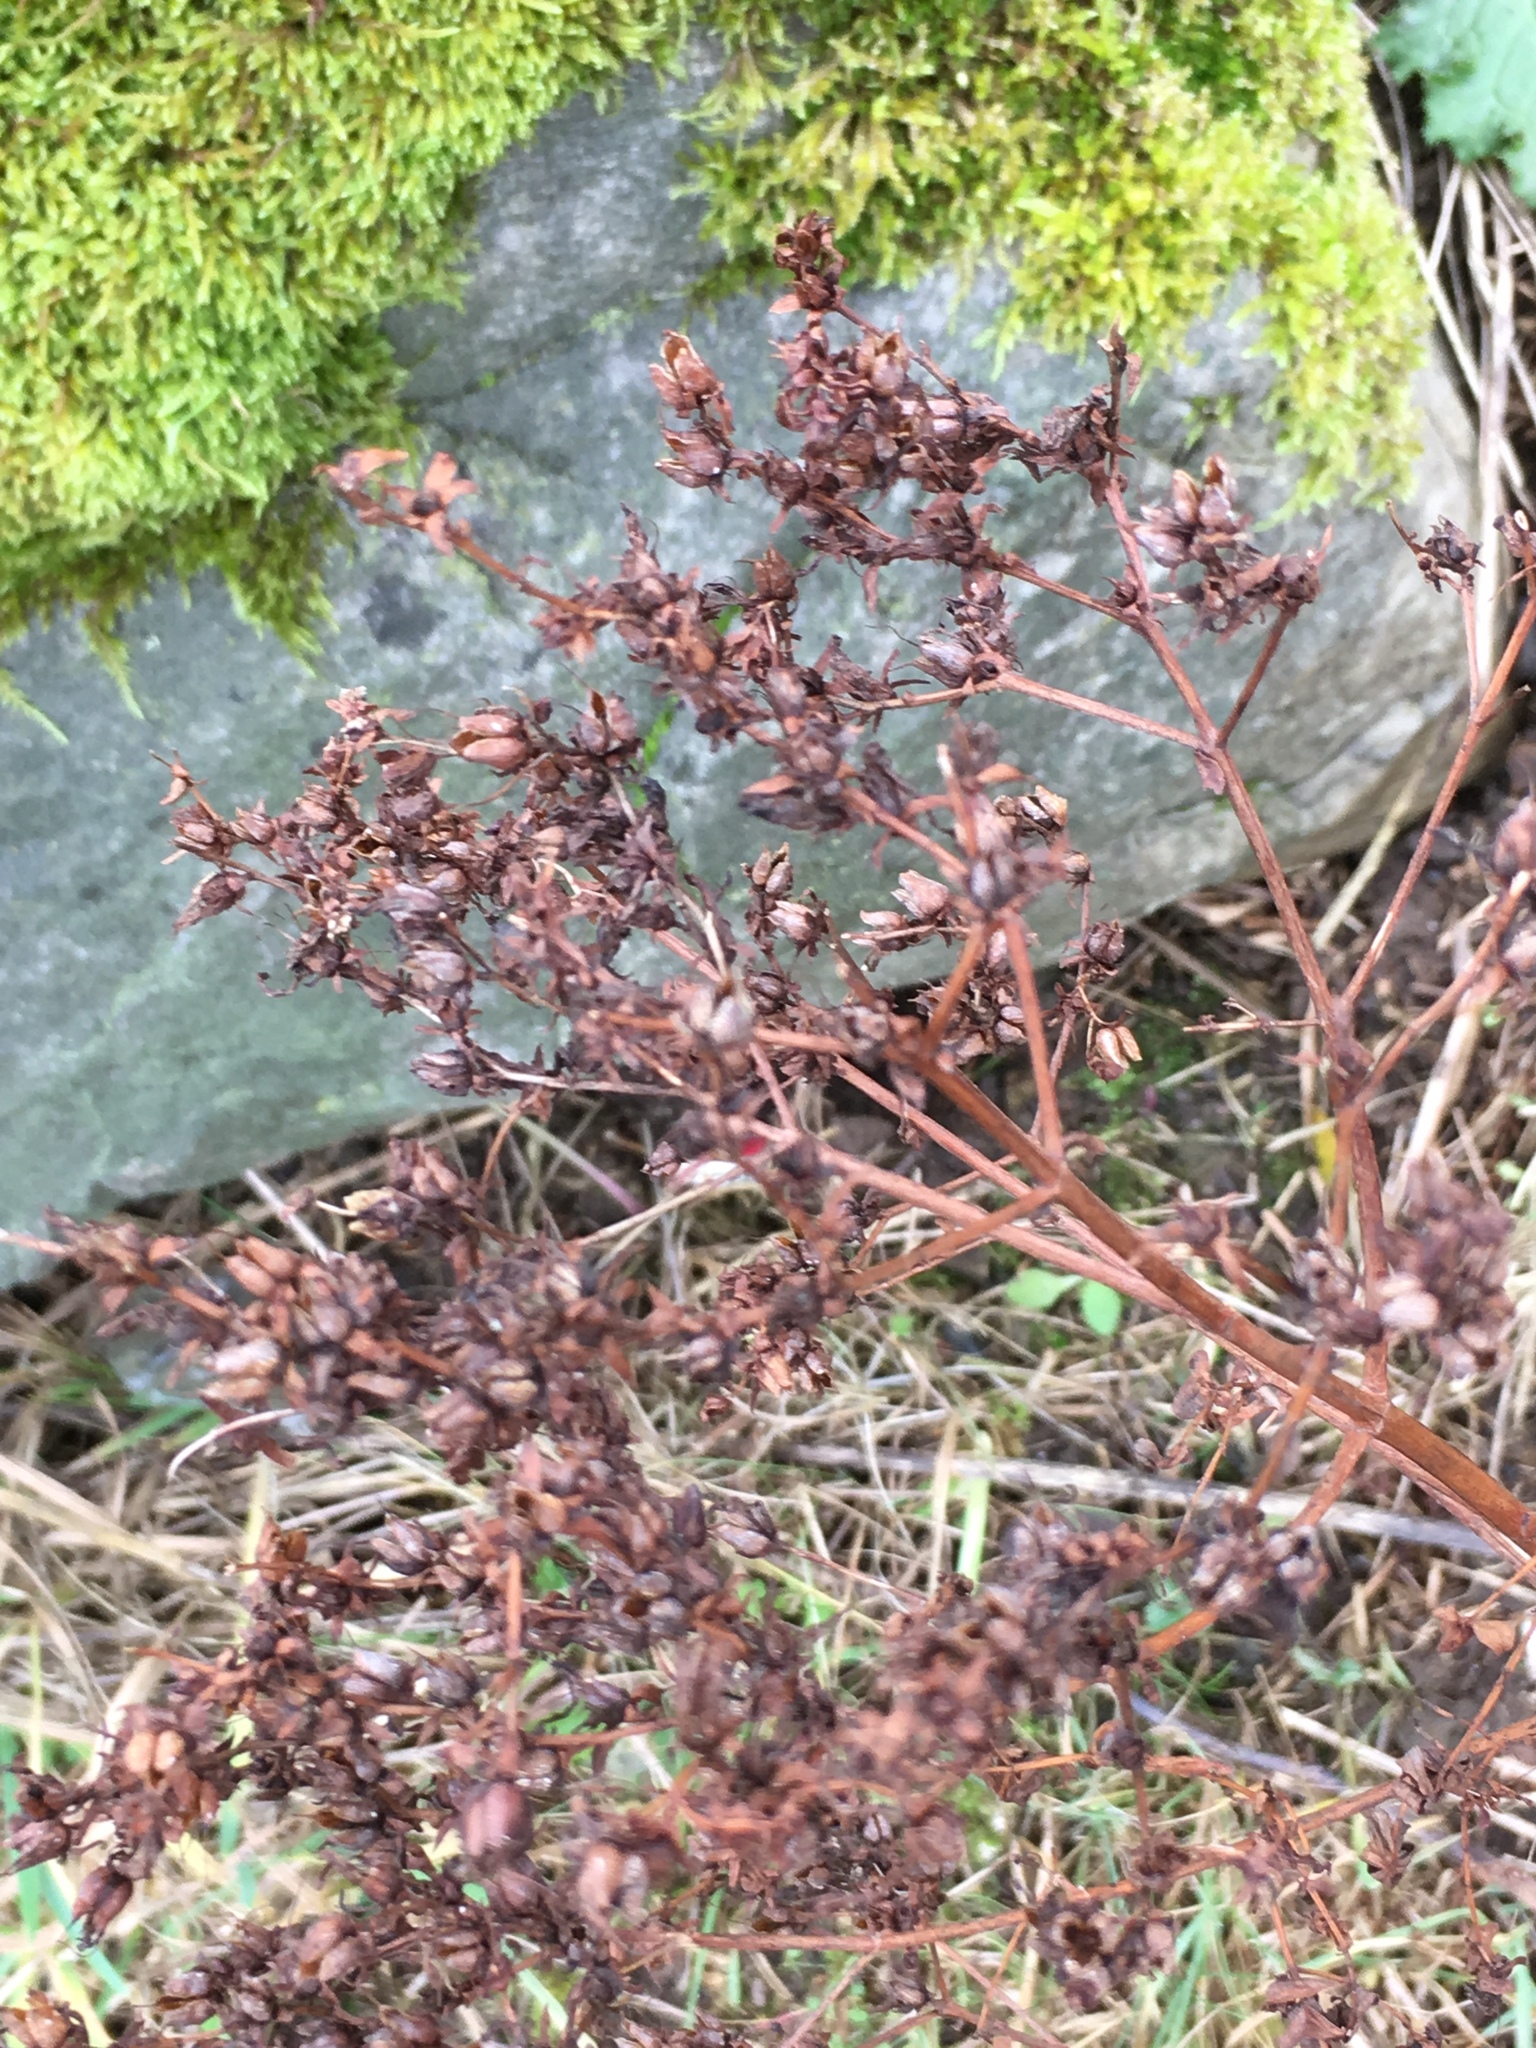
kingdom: Plantae
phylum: Tracheophyta
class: Magnoliopsida
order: Malpighiales
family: Hypericaceae
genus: Hypericum
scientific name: Hypericum perforatum
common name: Common st. johnswort
